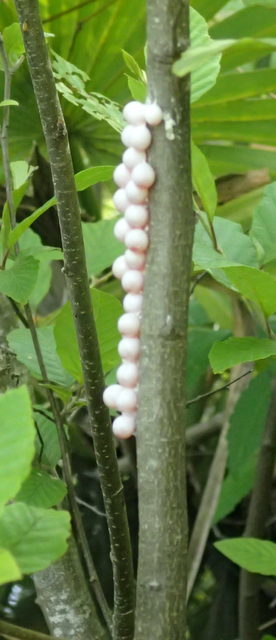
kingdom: Animalia
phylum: Mollusca
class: Gastropoda
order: Architaenioglossa
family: Ampullariidae
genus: Pomacea
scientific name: Pomacea paludosa
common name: Florida applesnail
